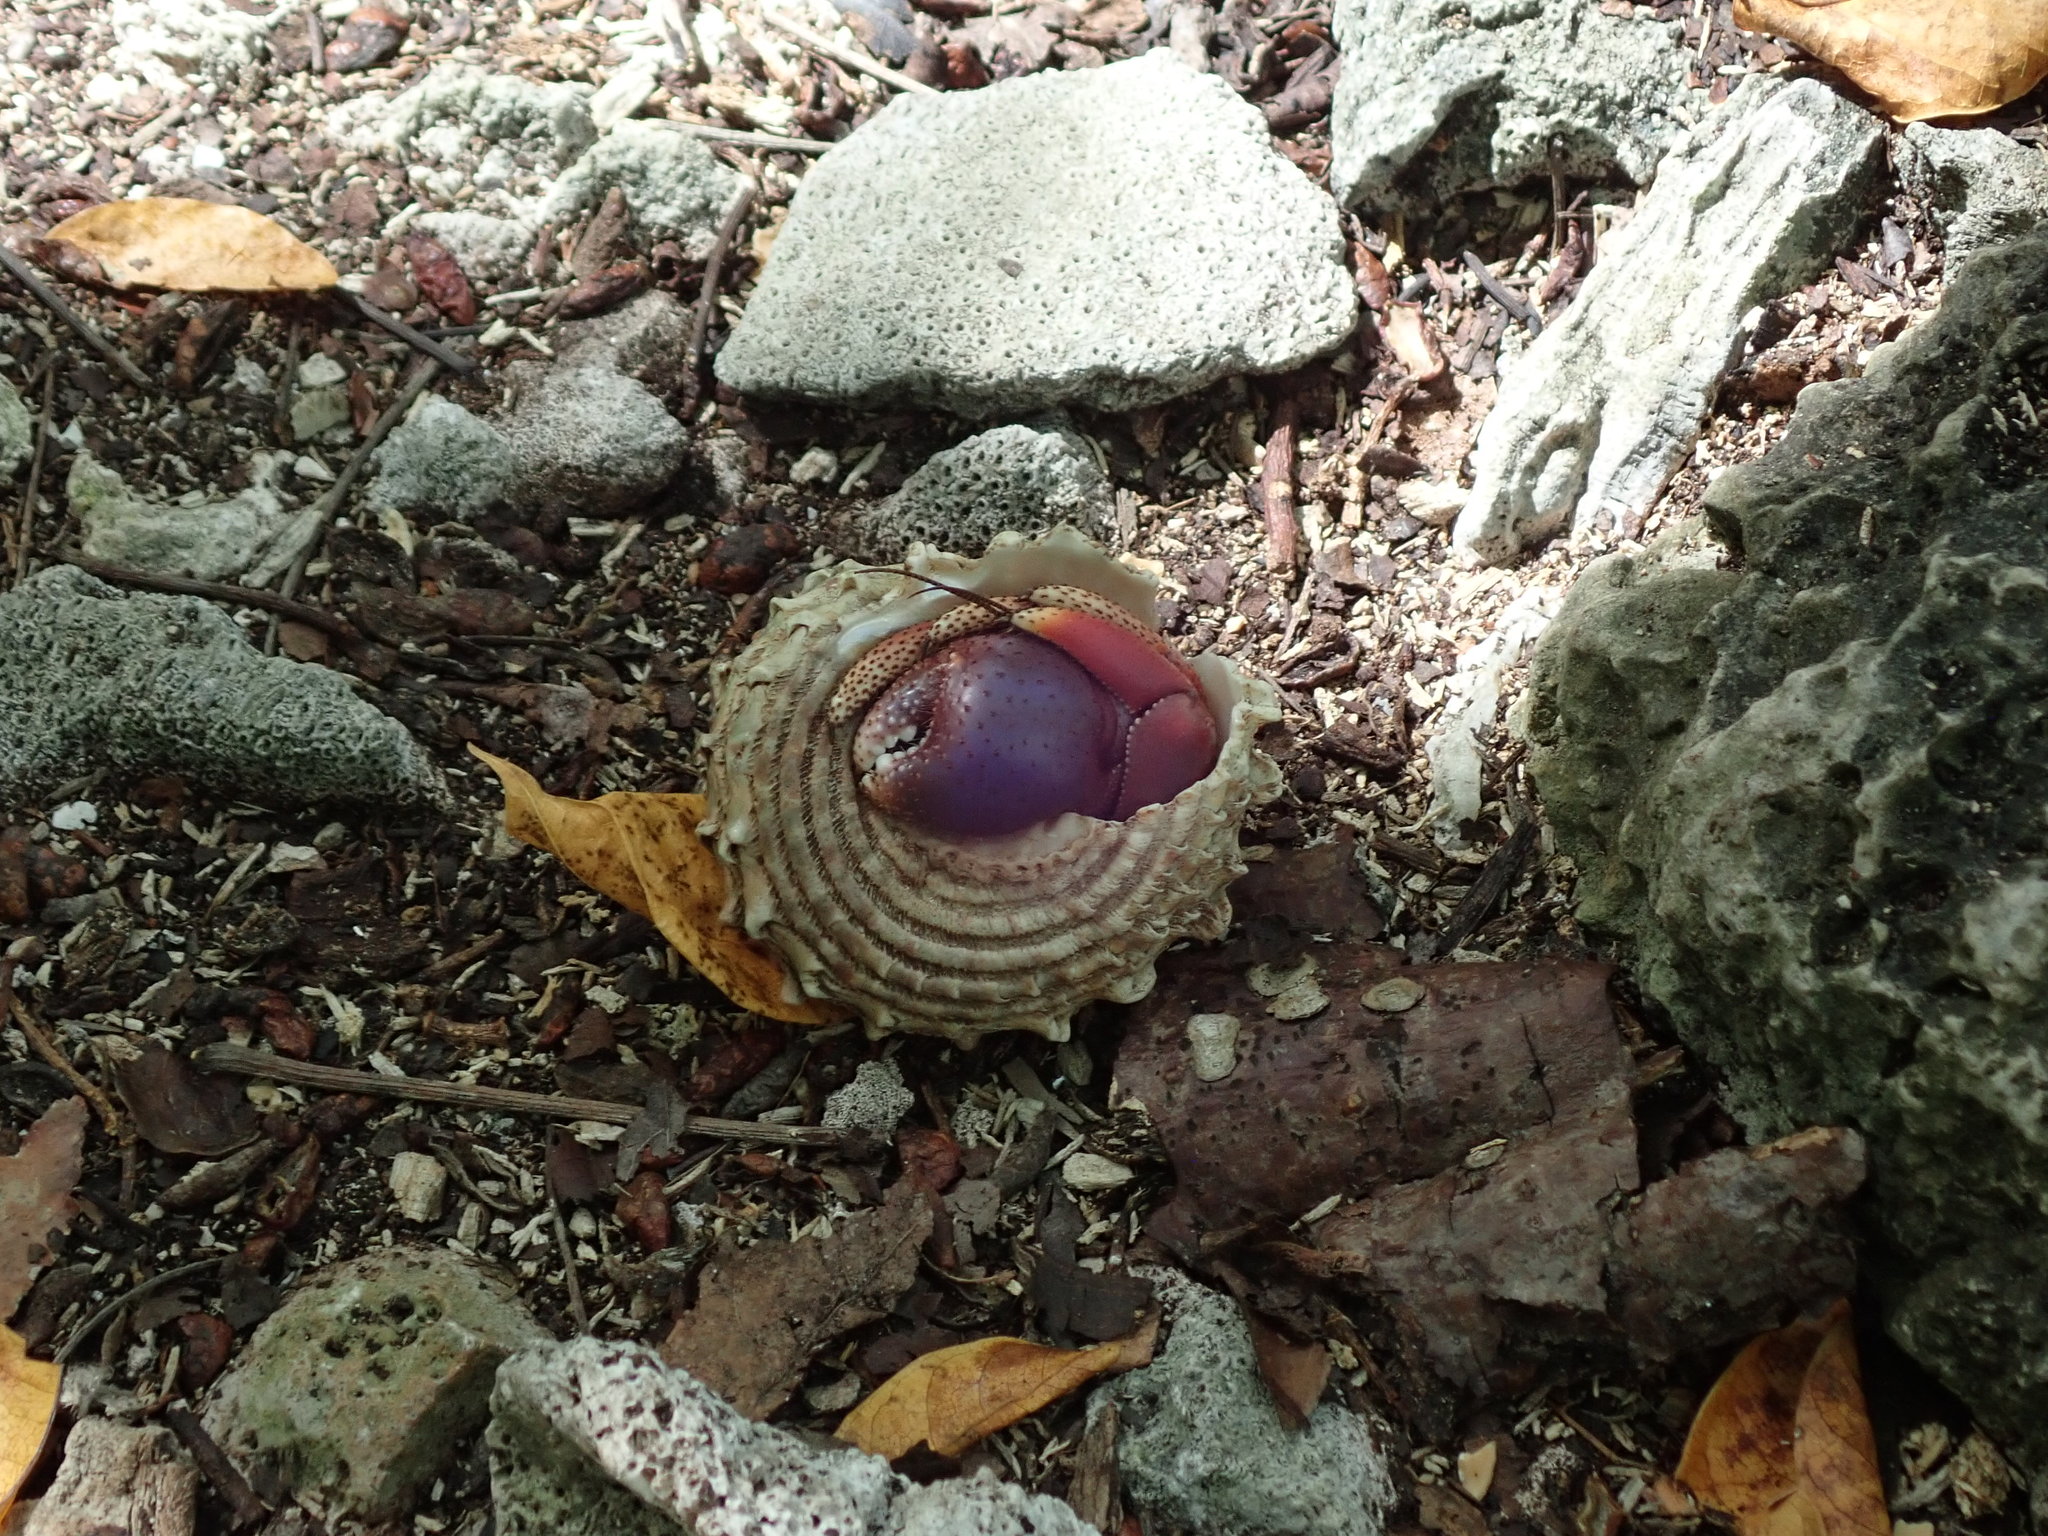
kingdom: Animalia
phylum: Arthropoda
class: Malacostraca
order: Decapoda
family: Coenobitidae
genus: Coenobita
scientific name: Coenobita clypeatus
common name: Caribbean hermit crab
